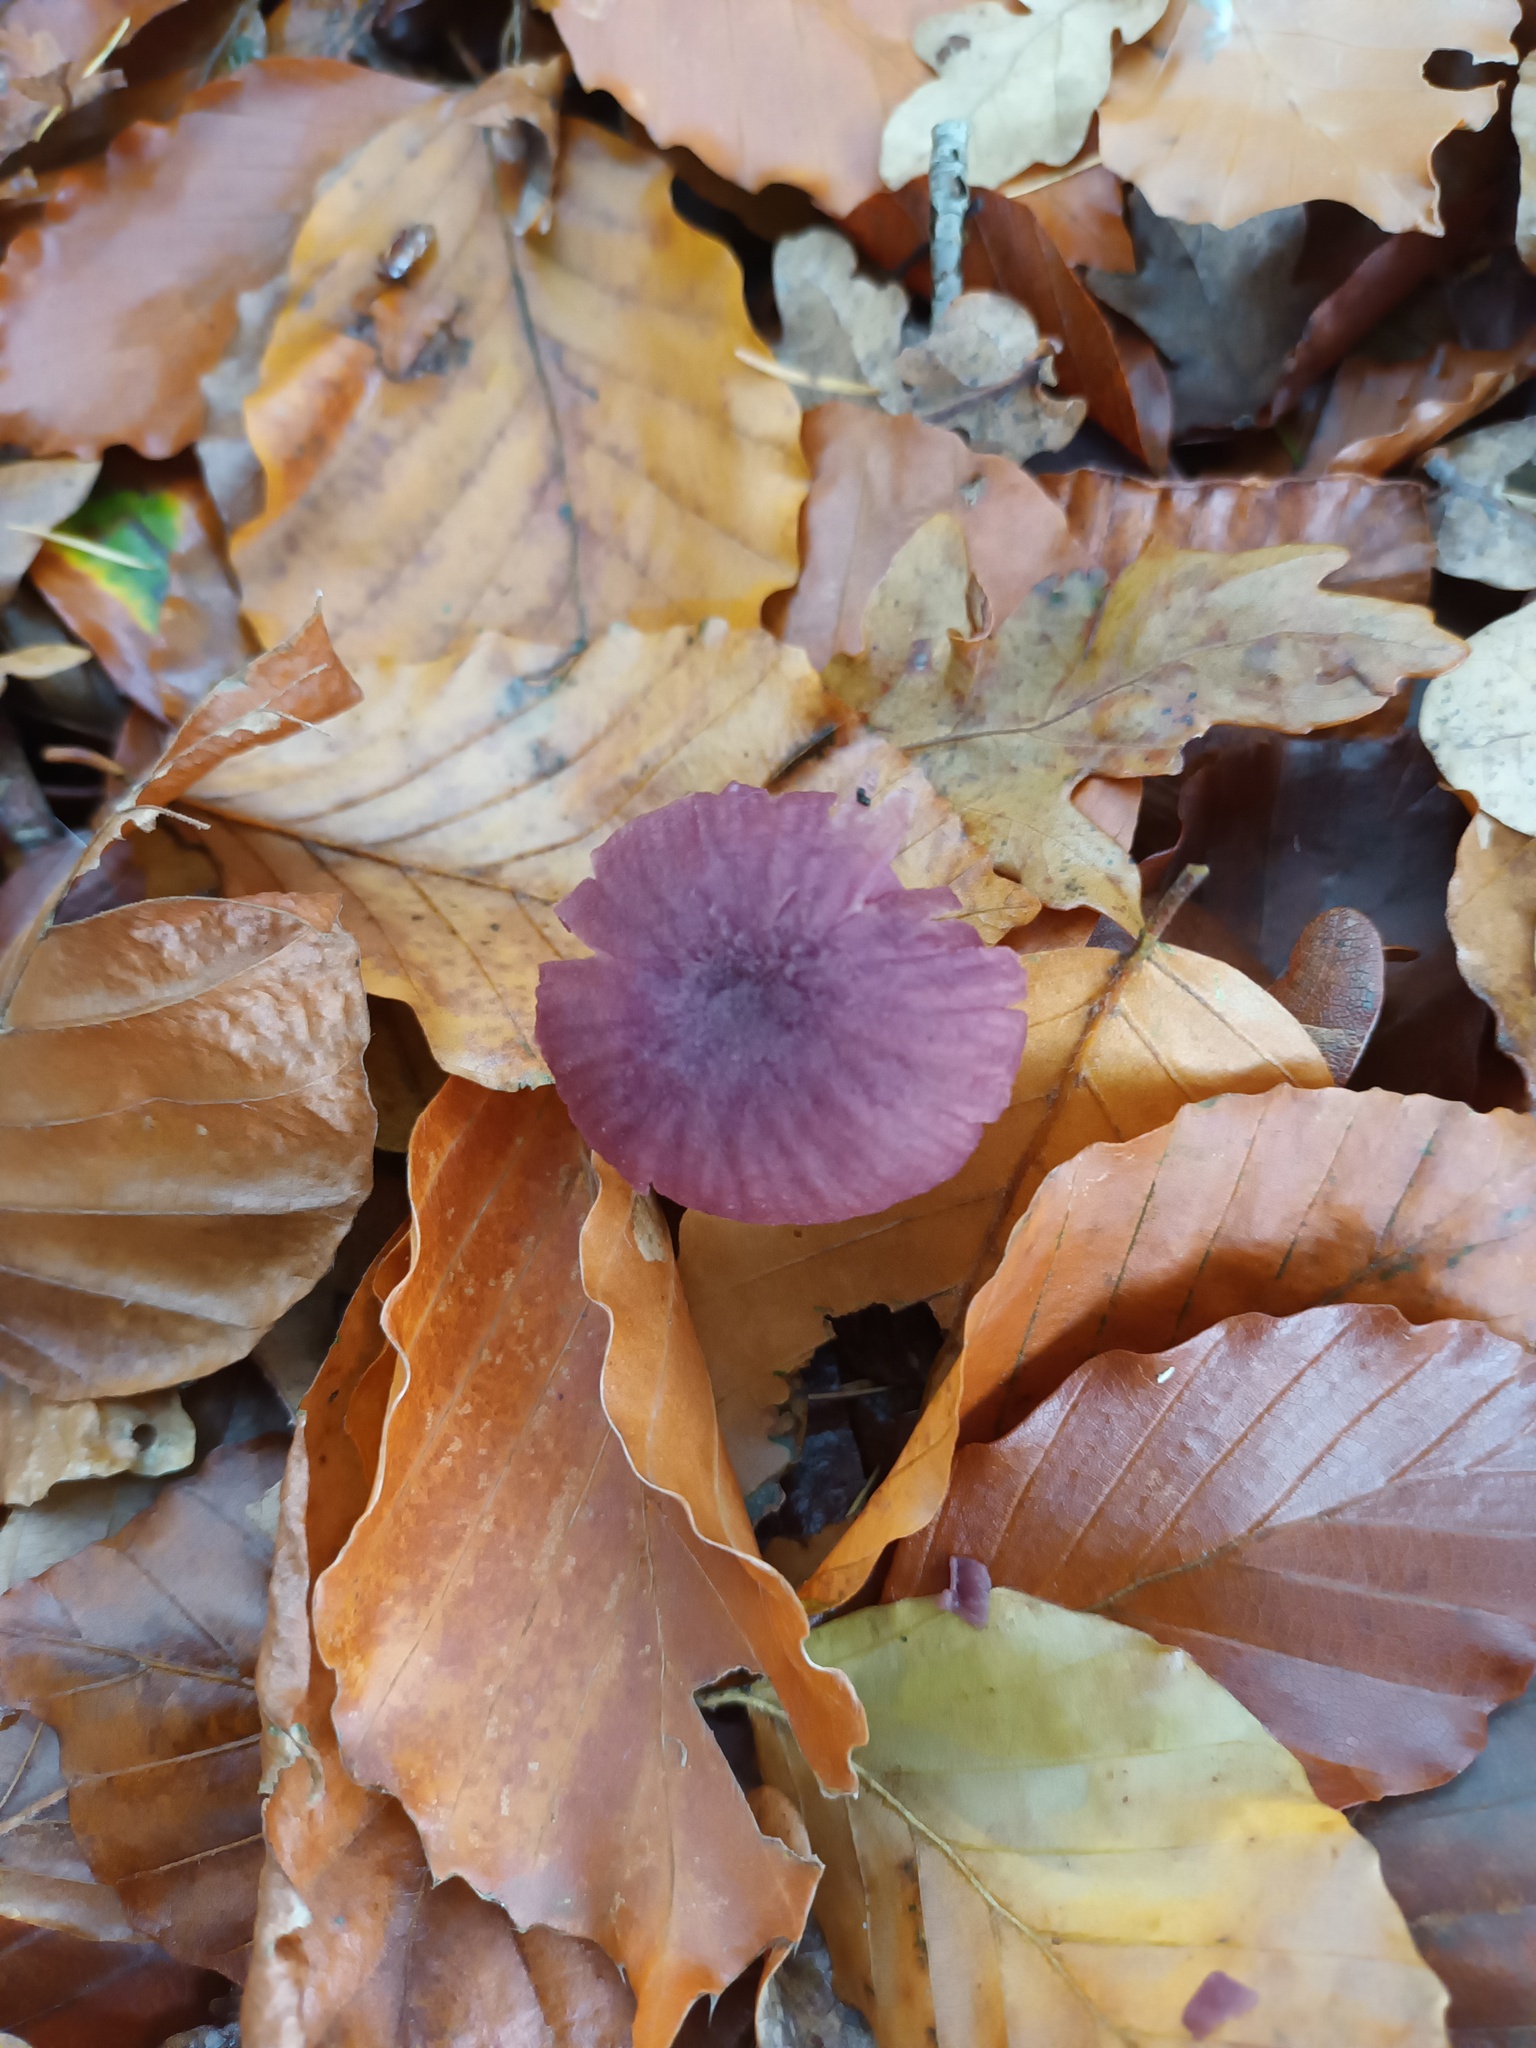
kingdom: Fungi
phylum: Basidiomycota
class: Agaricomycetes
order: Agaricales
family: Hydnangiaceae
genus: Laccaria
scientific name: Laccaria amethystina
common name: Amethyst deceiver
